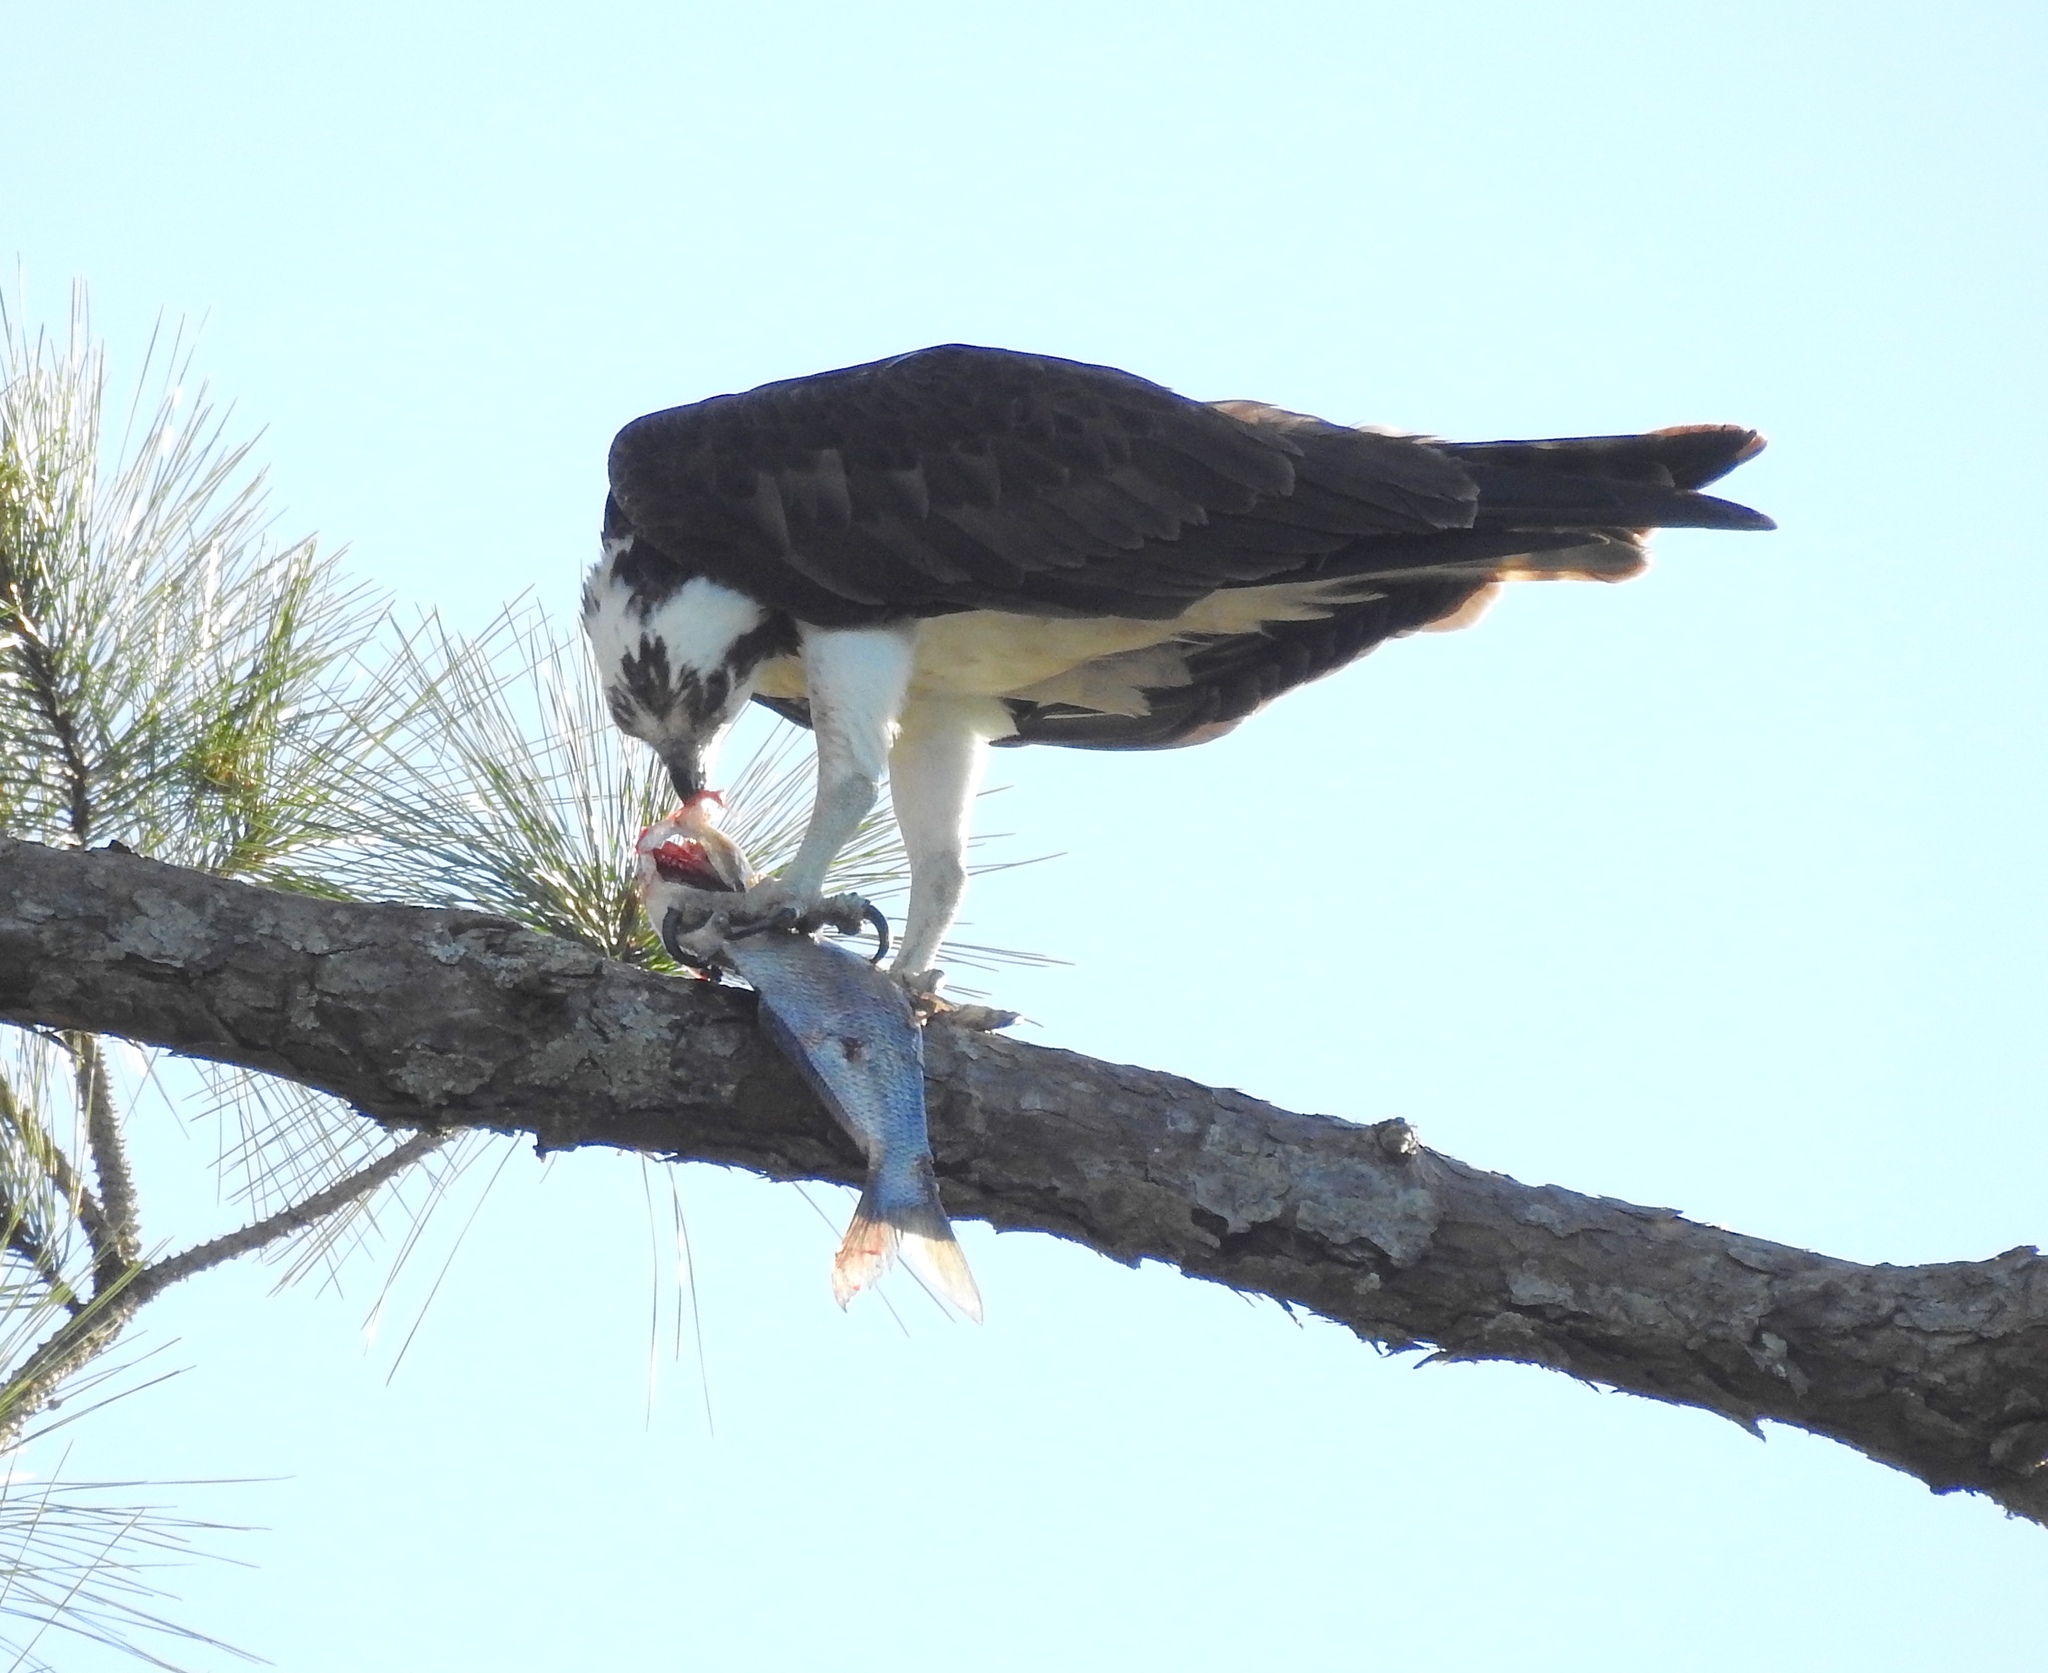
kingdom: Animalia
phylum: Chordata
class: Aves
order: Accipitriformes
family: Pandionidae
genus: Pandion
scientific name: Pandion haliaetus
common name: Osprey
